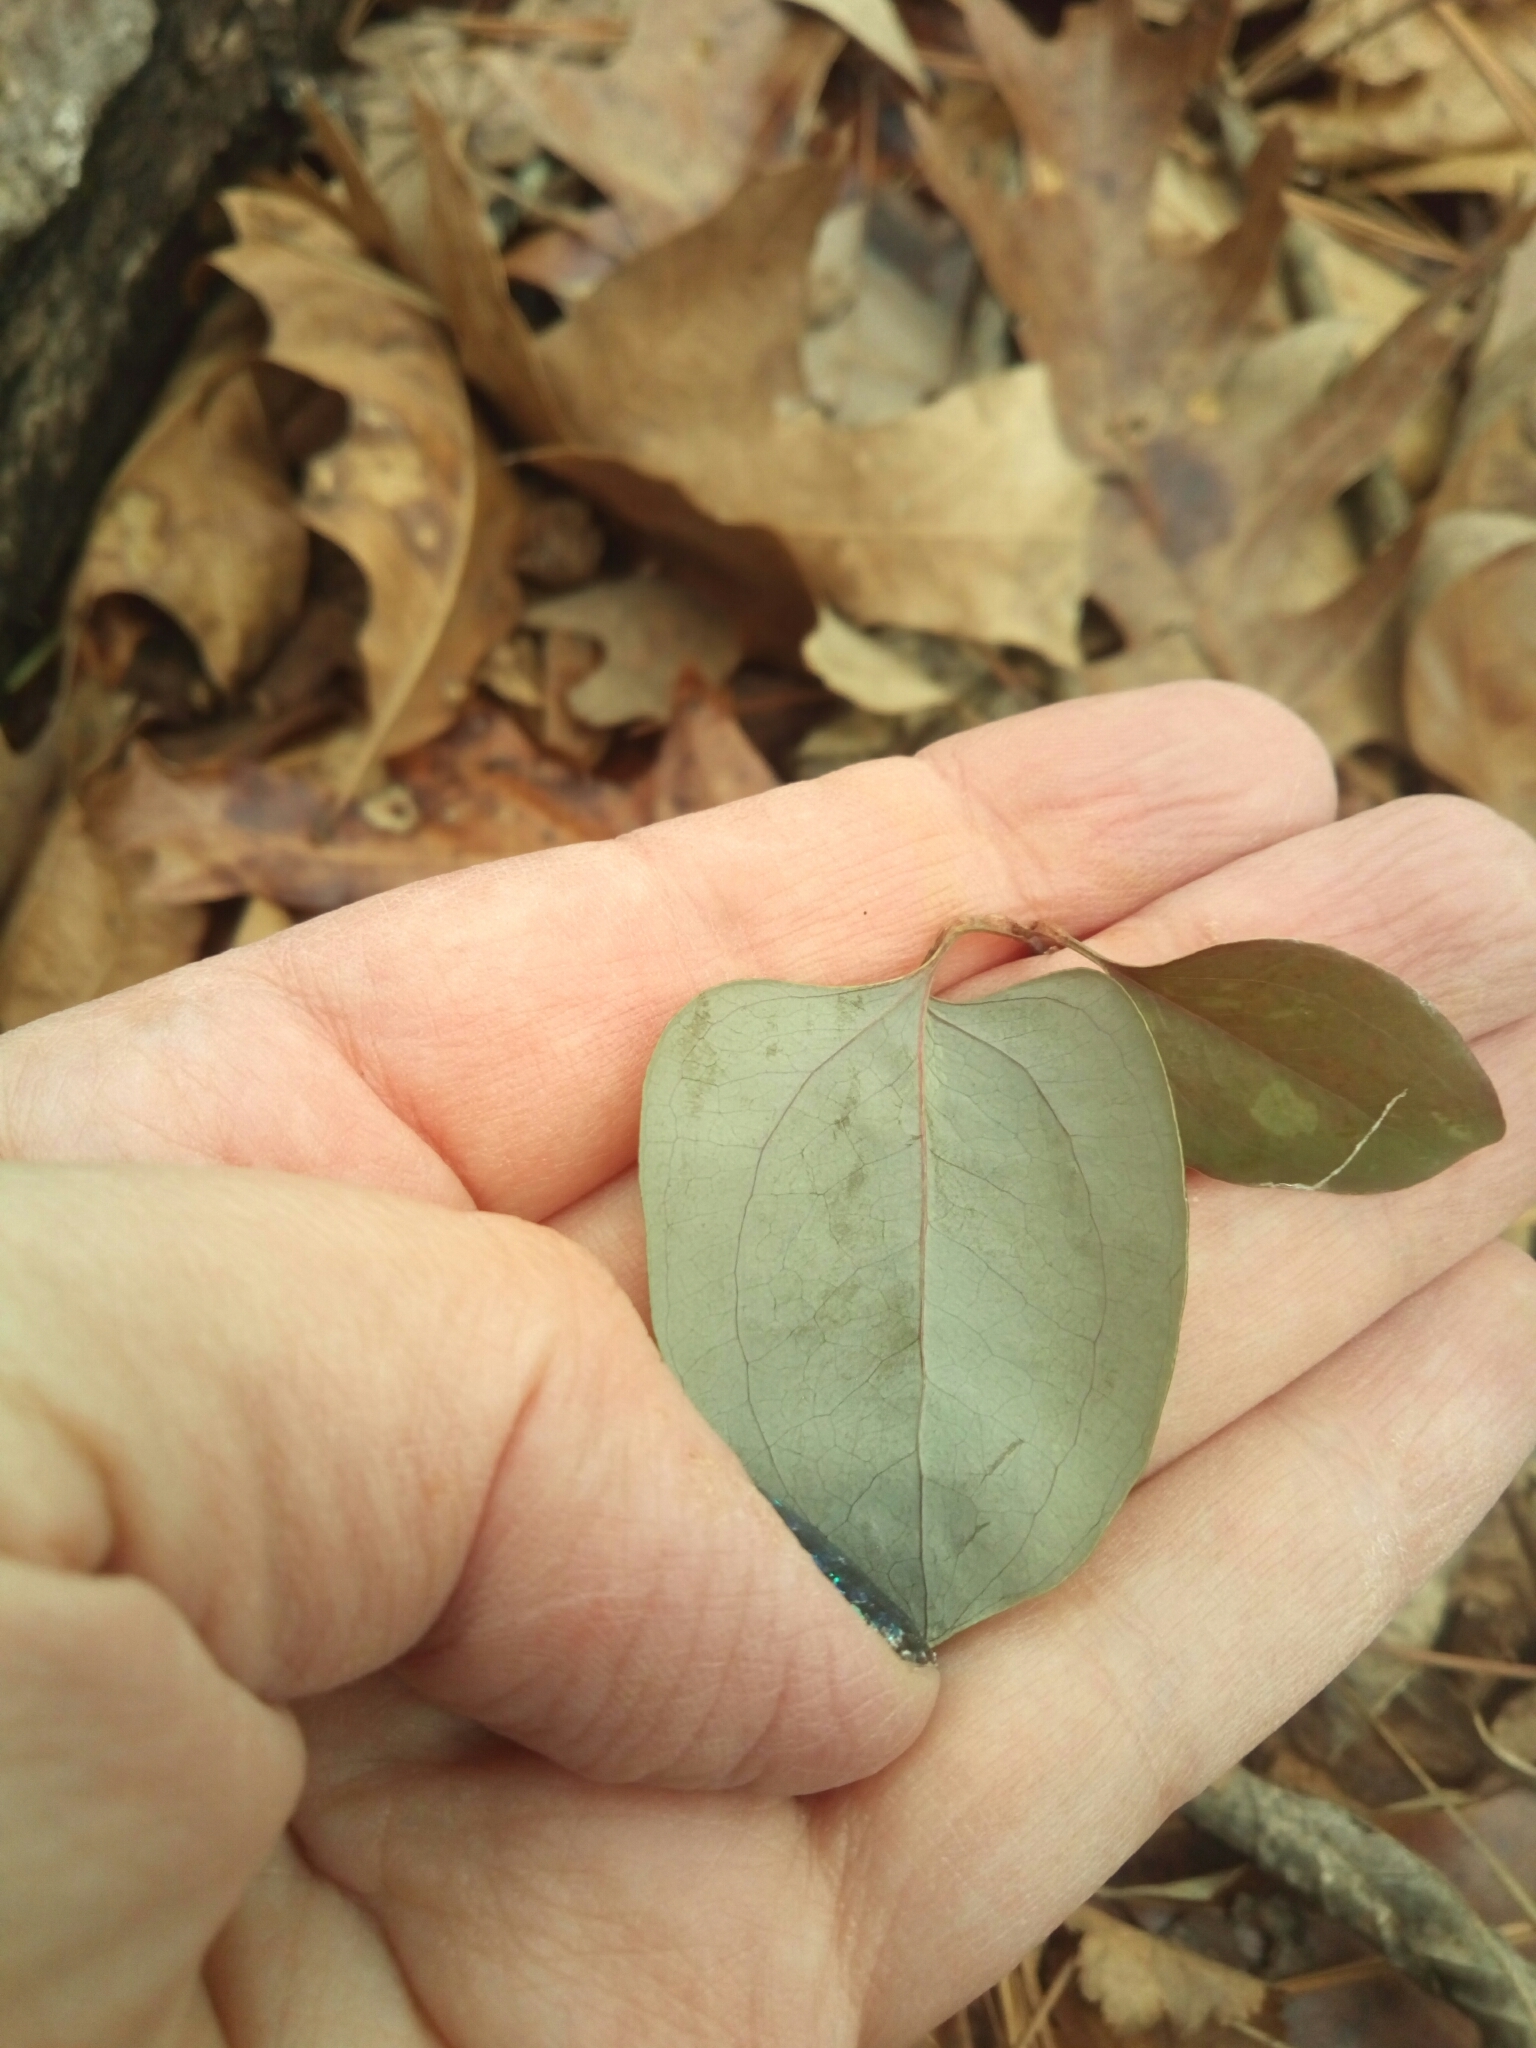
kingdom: Plantae
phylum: Tracheophyta
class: Liliopsida
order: Liliales
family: Smilacaceae
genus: Smilax
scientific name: Smilax glauca
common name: Cat greenbrier
